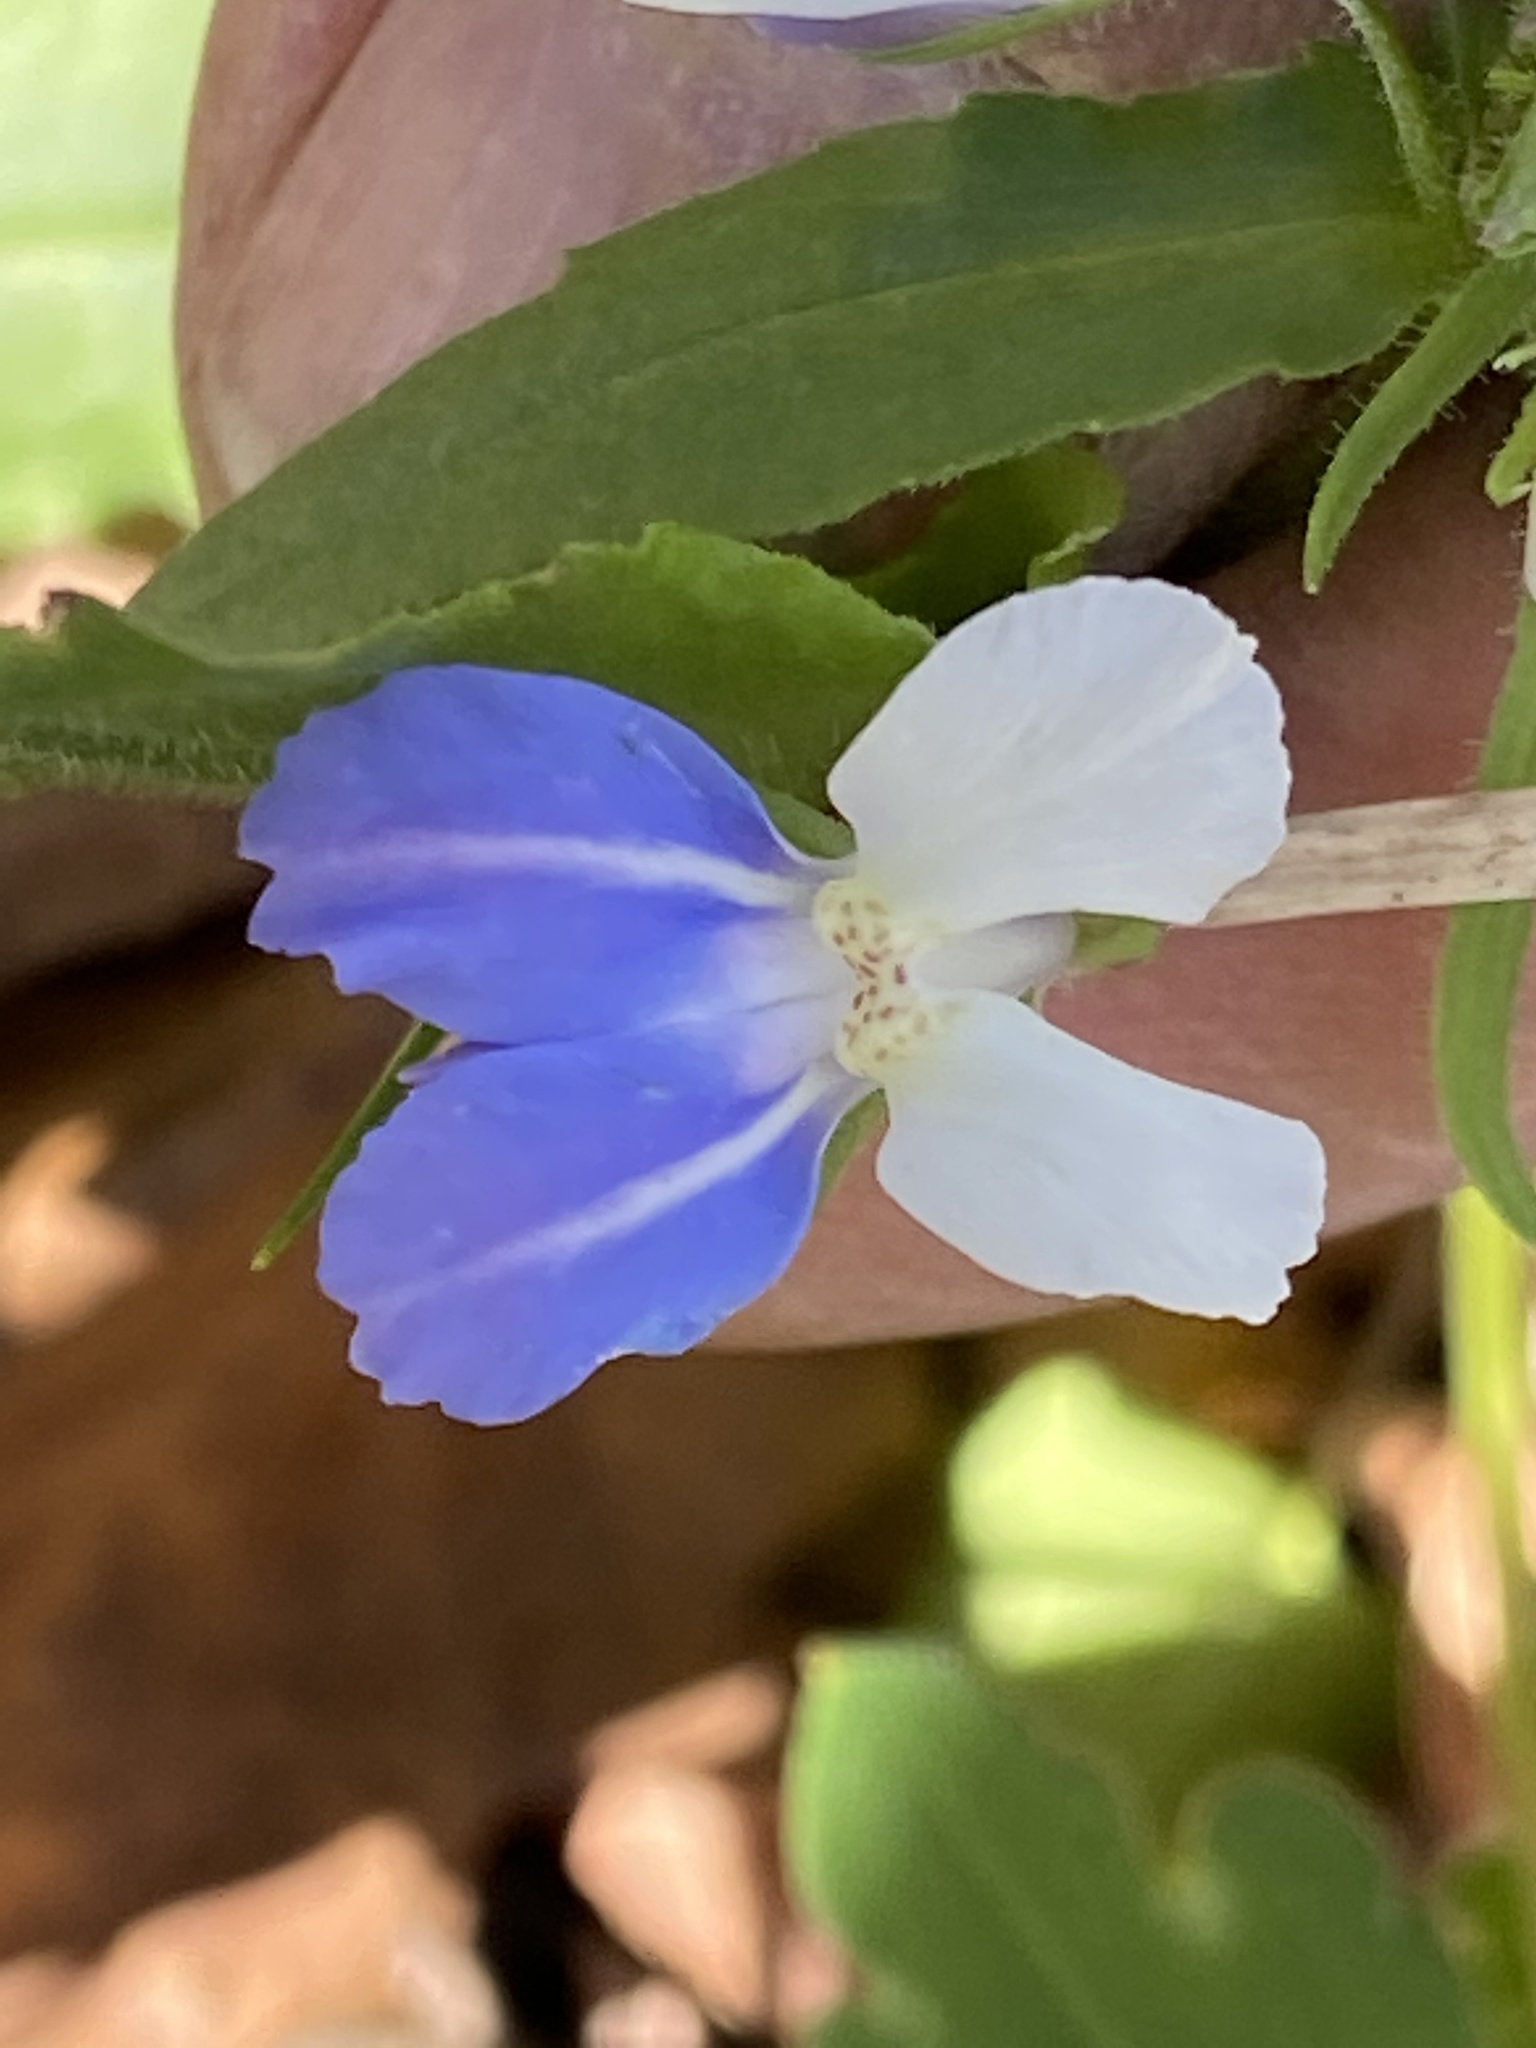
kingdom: Plantae
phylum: Tracheophyta
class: Magnoliopsida
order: Lamiales
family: Plantaginaceae
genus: Collinsia
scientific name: Collinsia verna
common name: Broad-leaved collinsia
